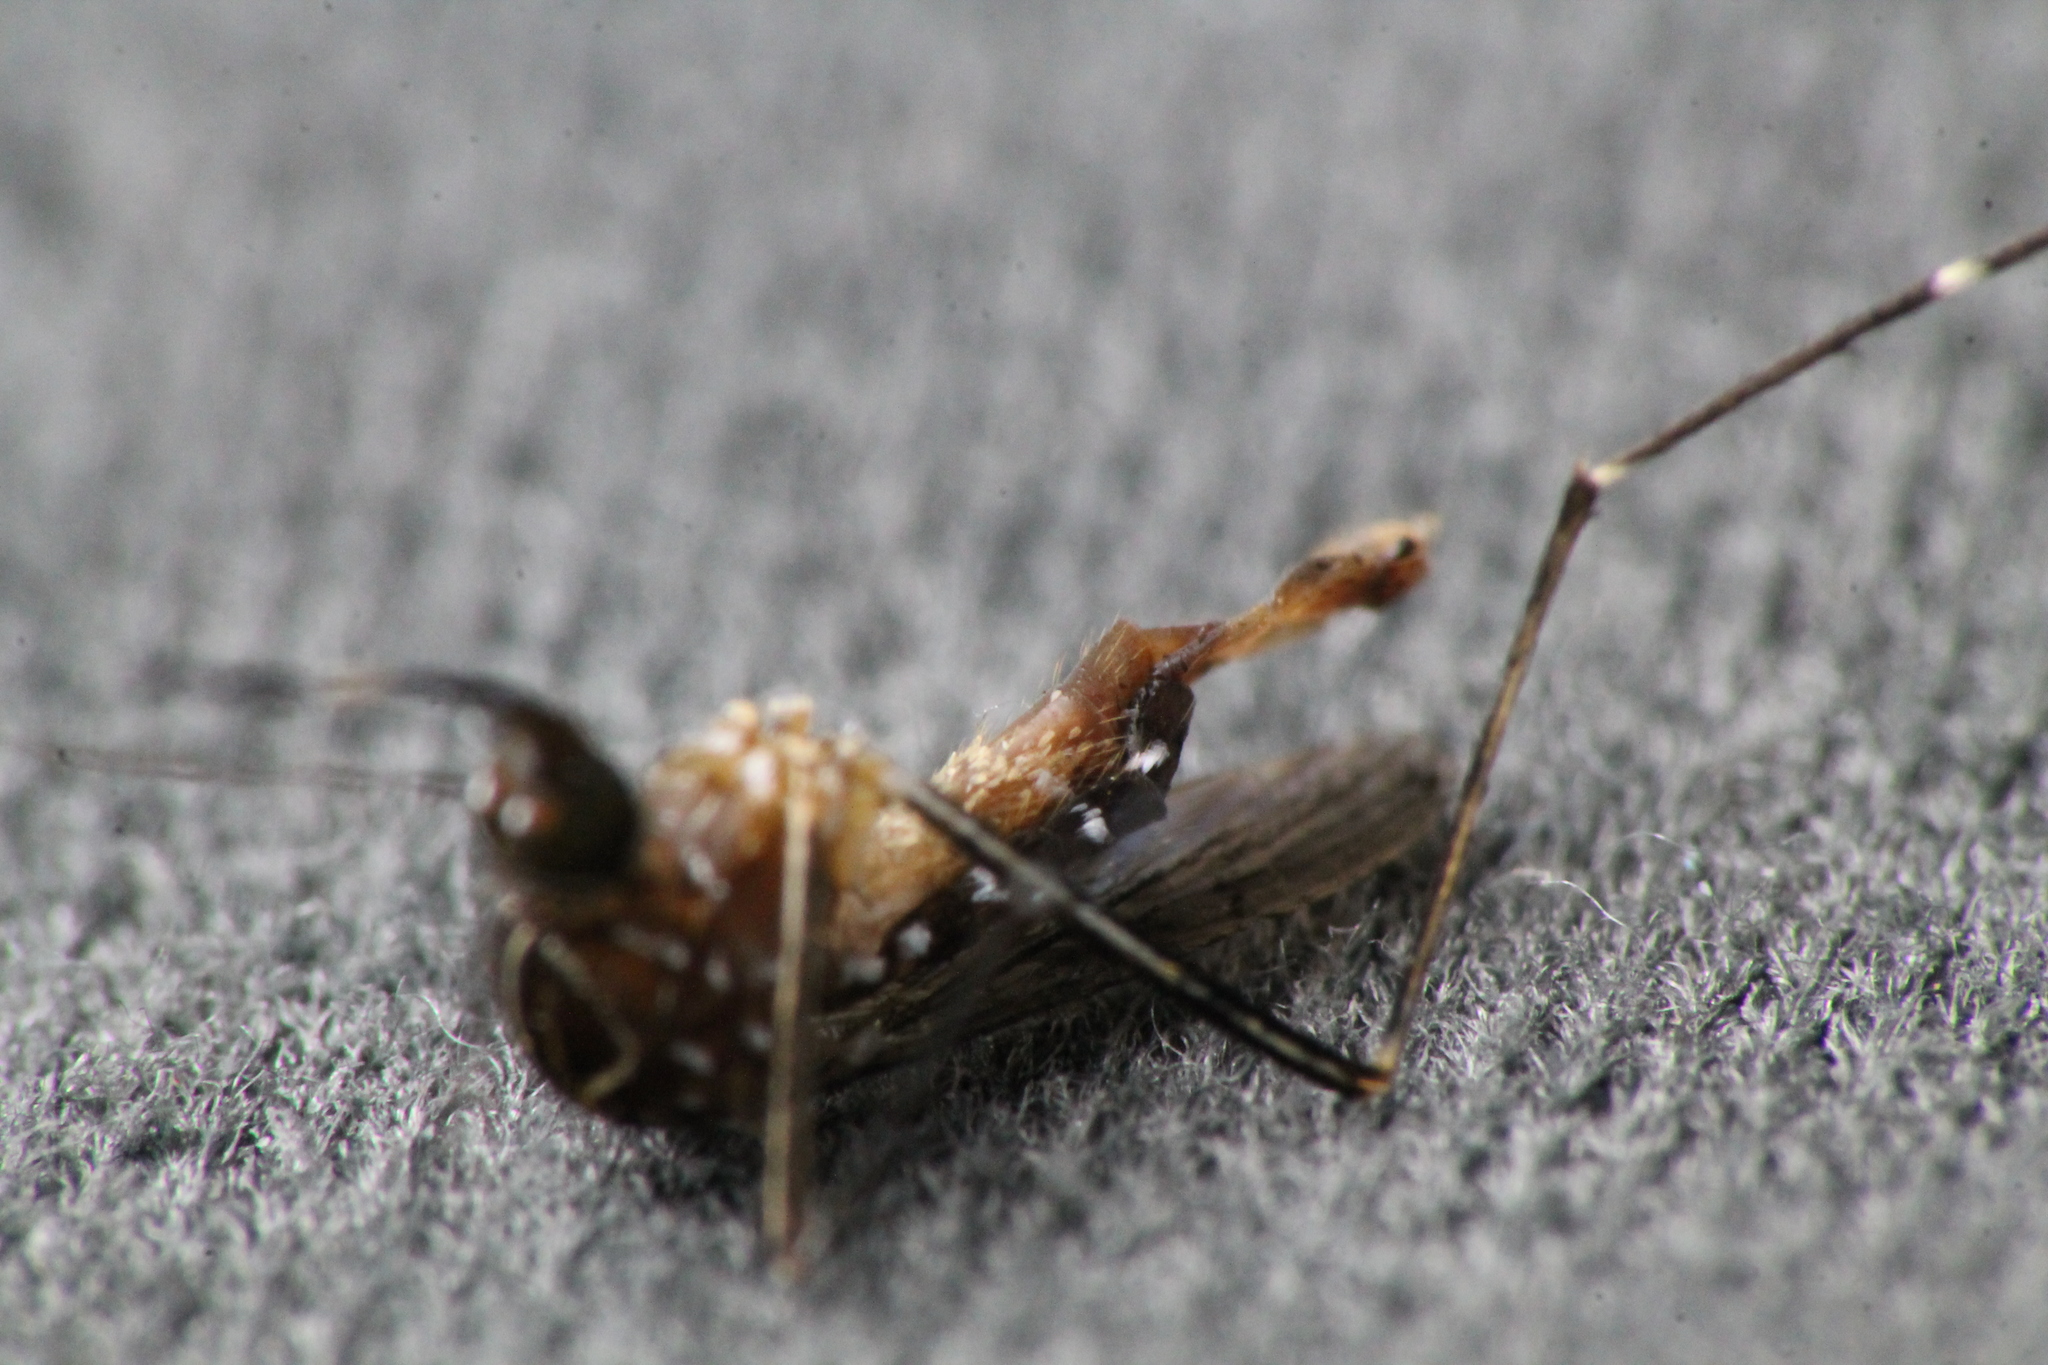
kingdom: Animalia
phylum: Arthropoda
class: Insecta
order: Diptera
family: Culicidae
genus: Aedes
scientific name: Aedes notoscriptus
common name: Australian backyard mosquito
